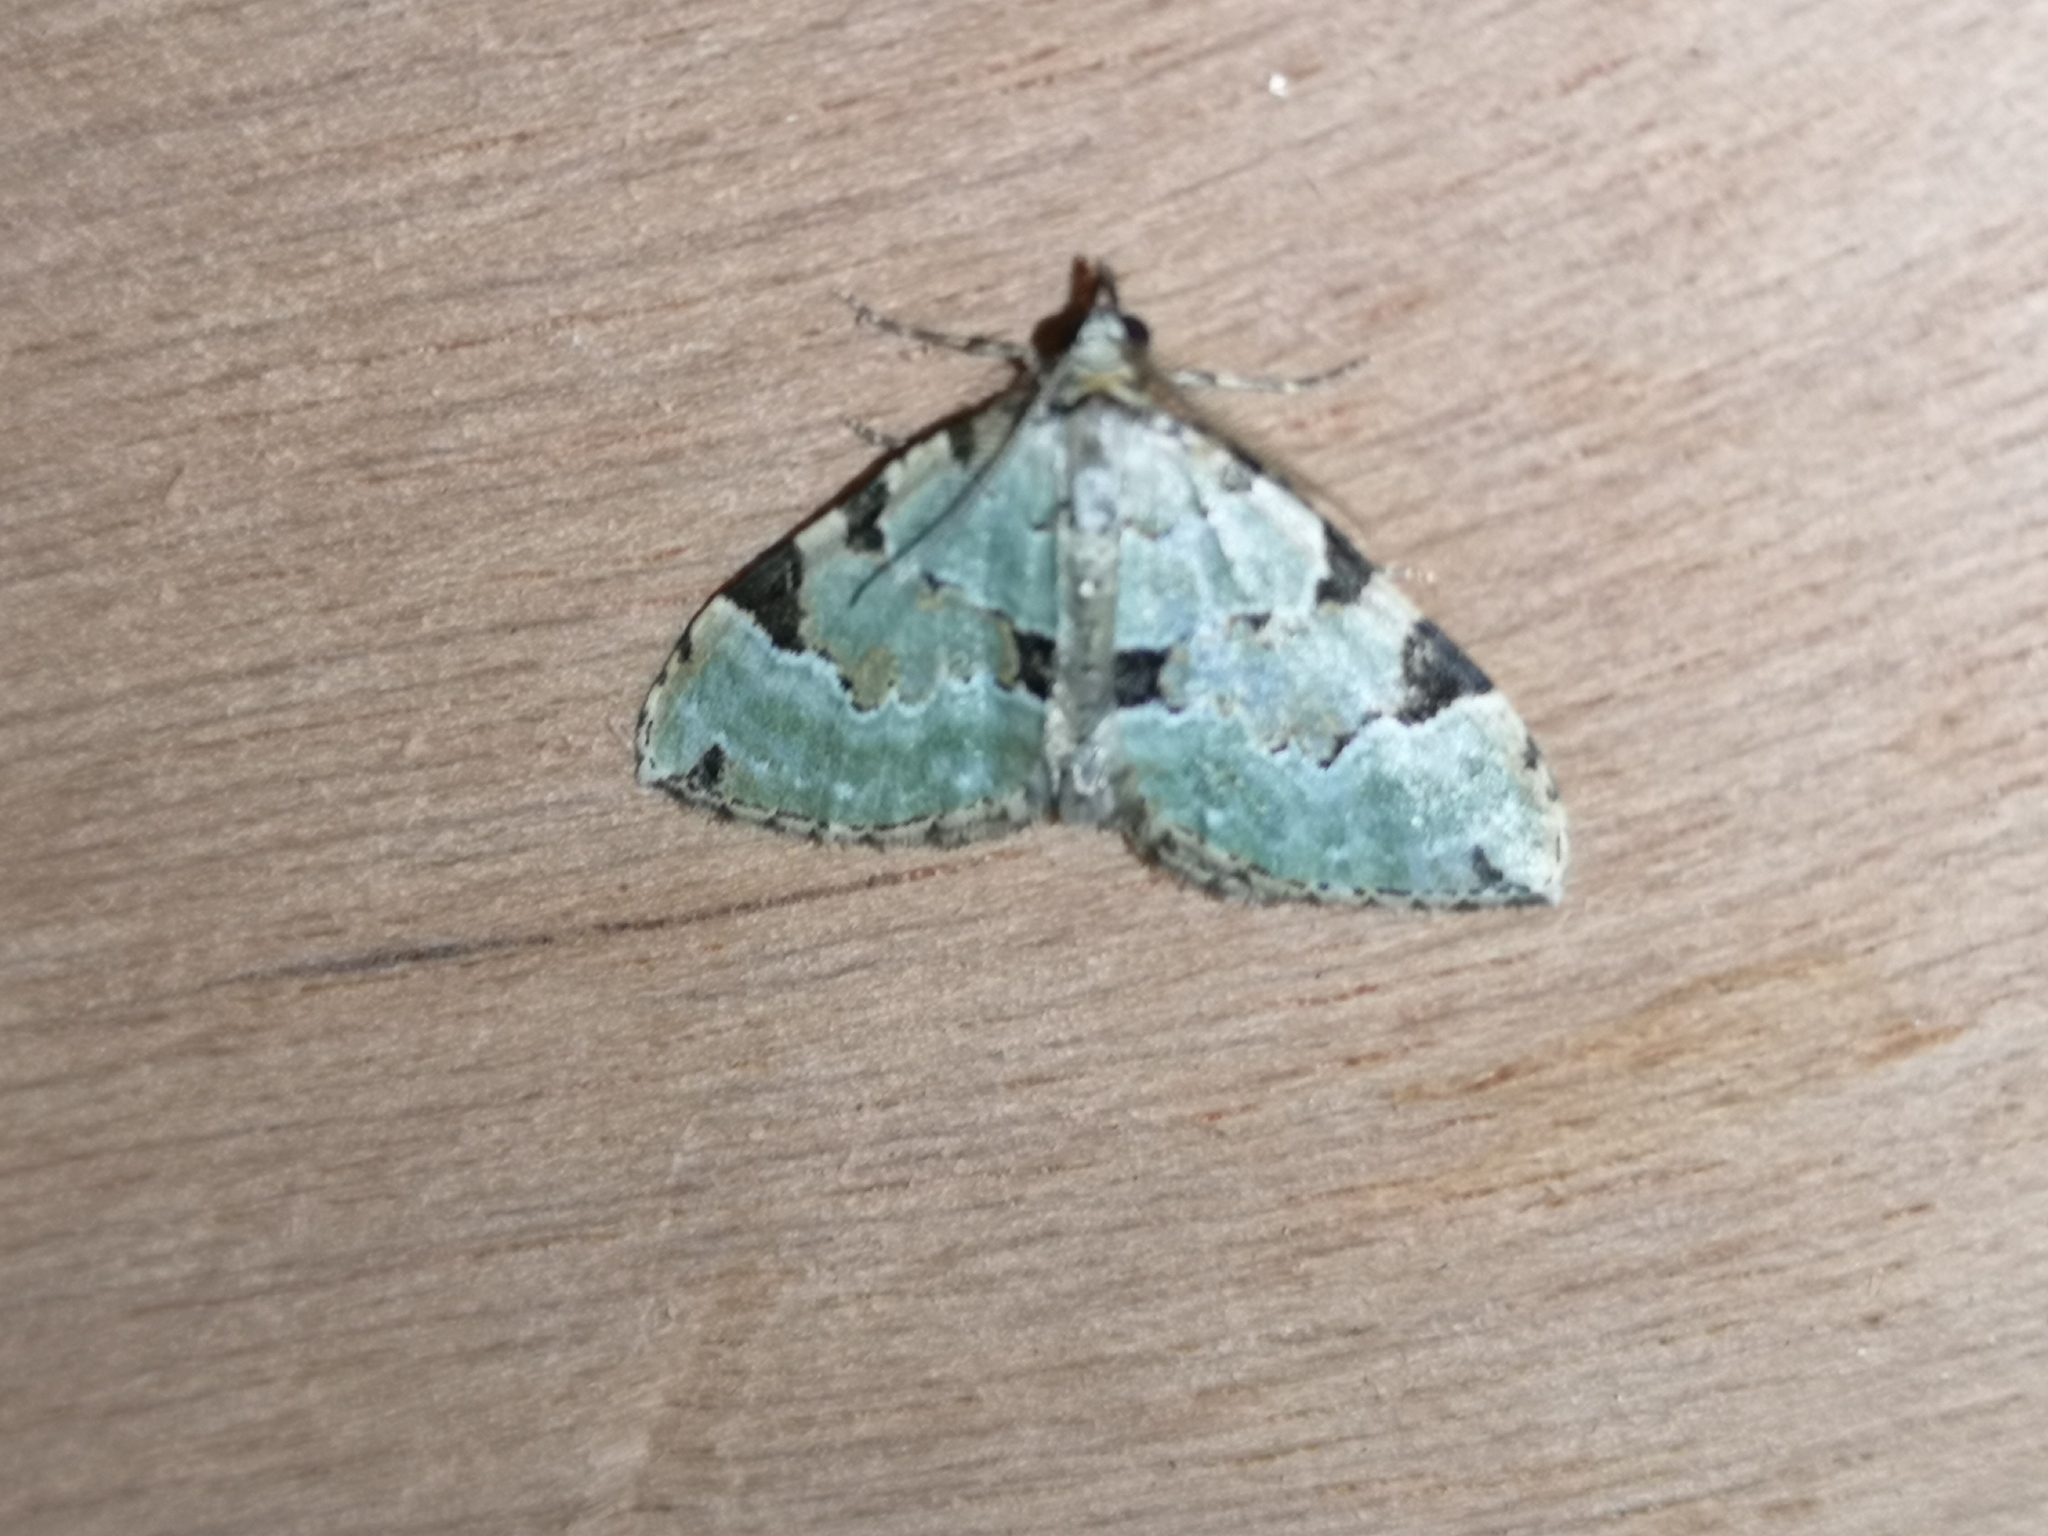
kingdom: Animalia
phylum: Arthropoda
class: Insecta
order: Lepidoptera
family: Geometridae
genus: Colostygia
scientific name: Colostygia pectinataria
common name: Green carpet
